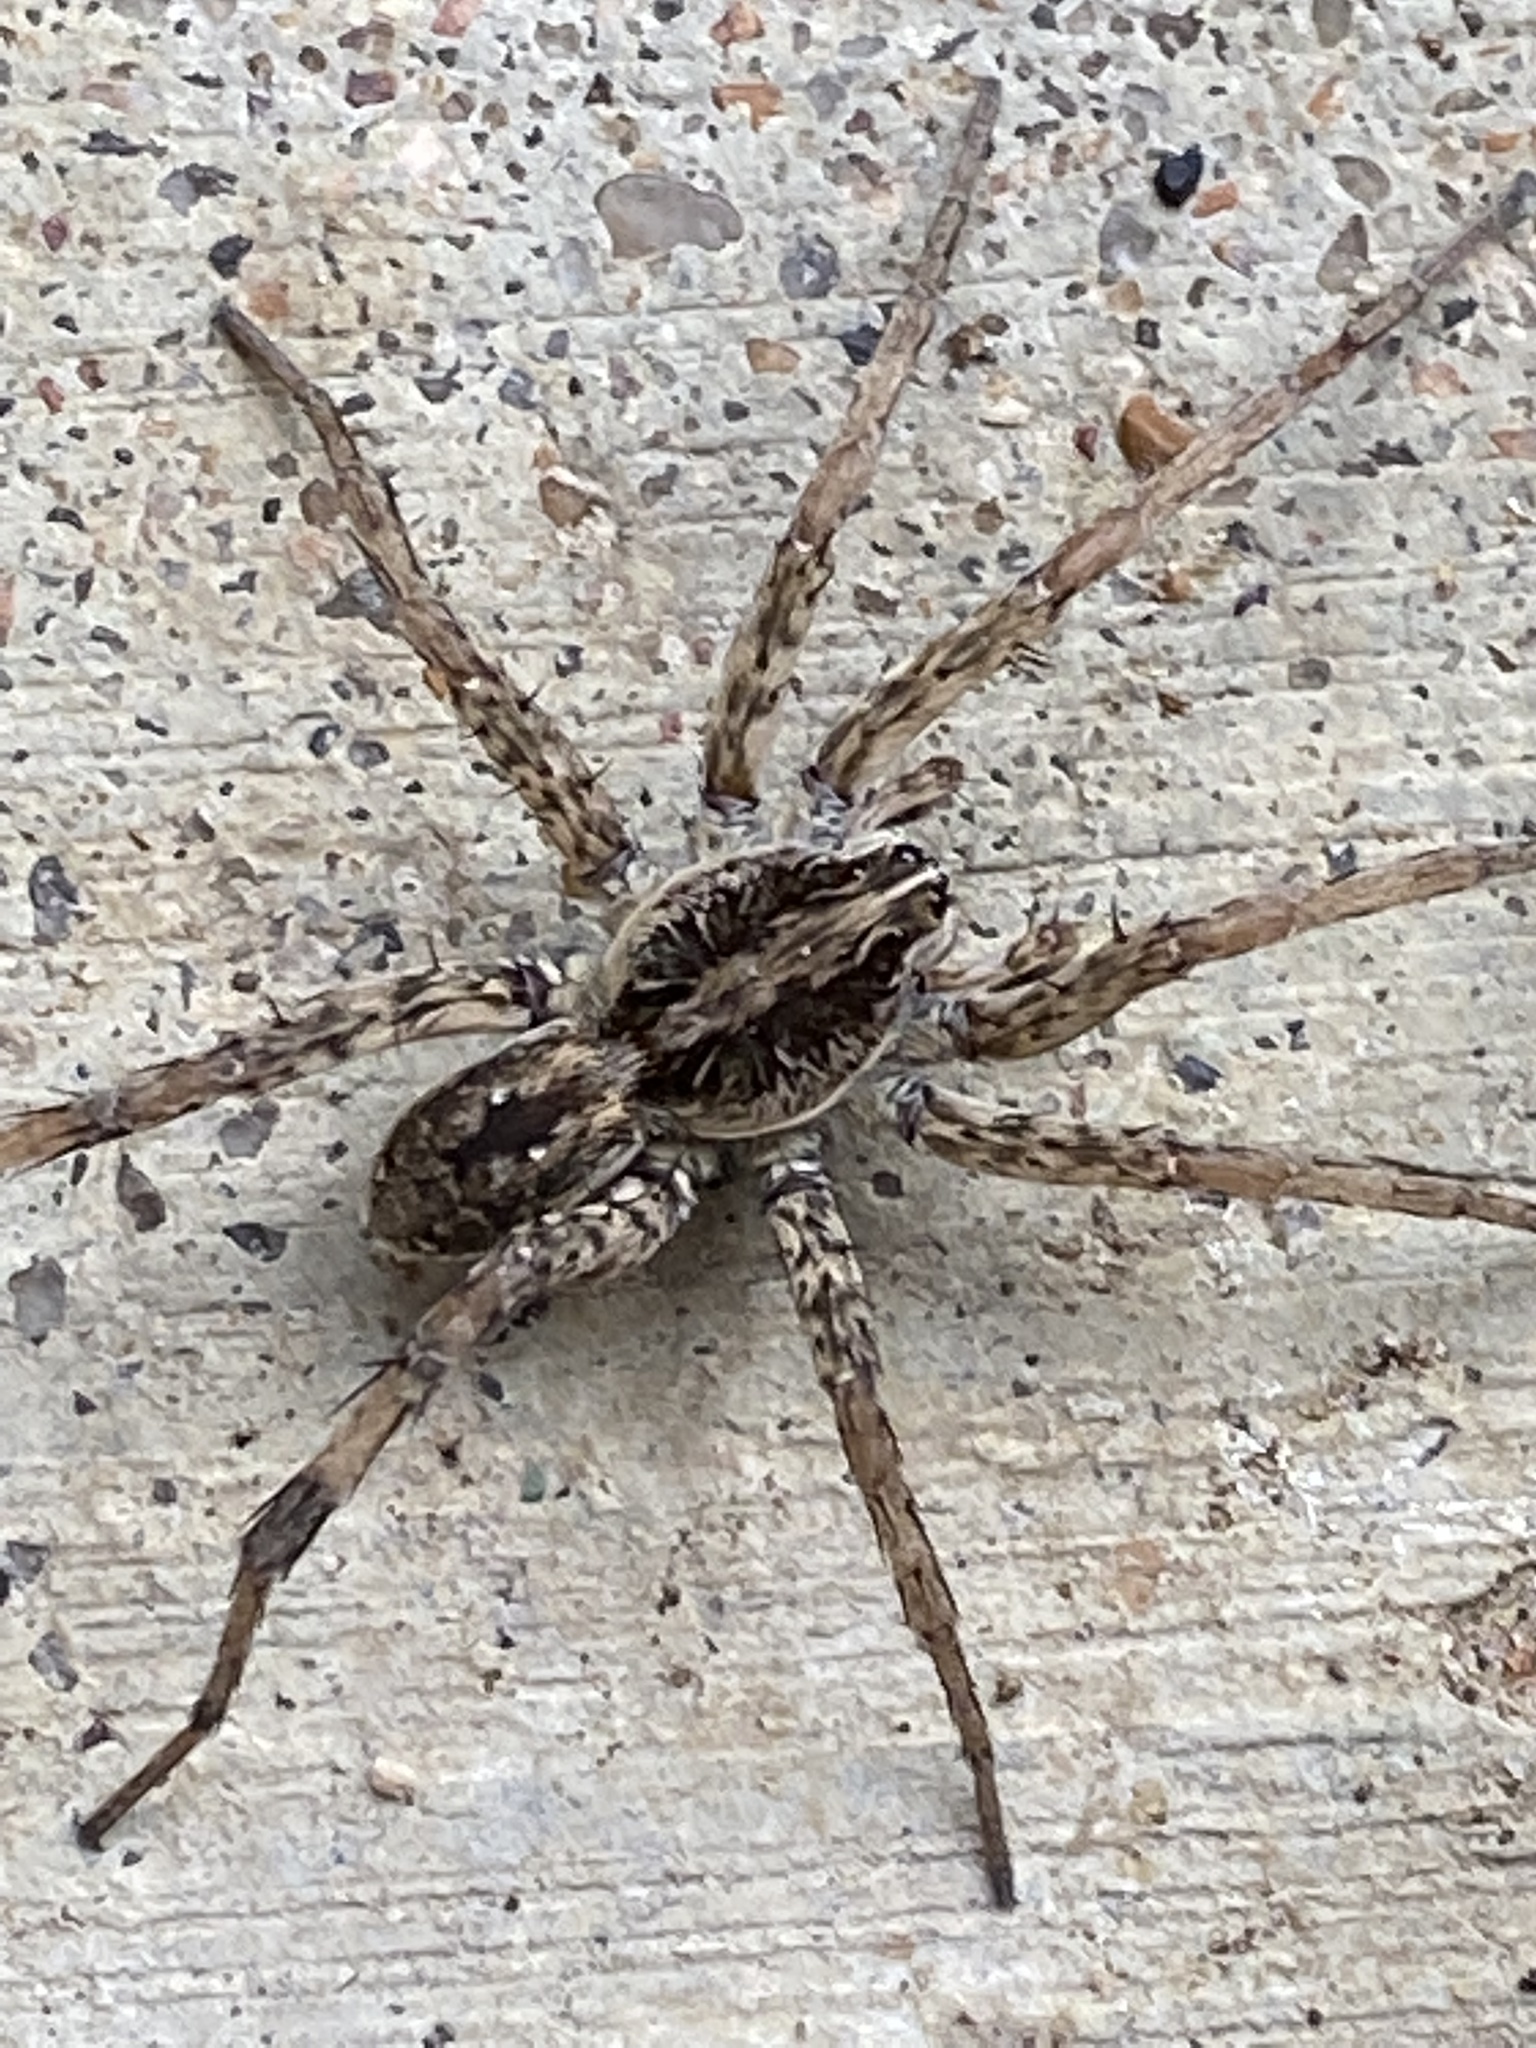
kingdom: Animalia
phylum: Arthropoda
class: Arachnida
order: Araneae
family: Lycosidae
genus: Hogna
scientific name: Hogna antelucana
